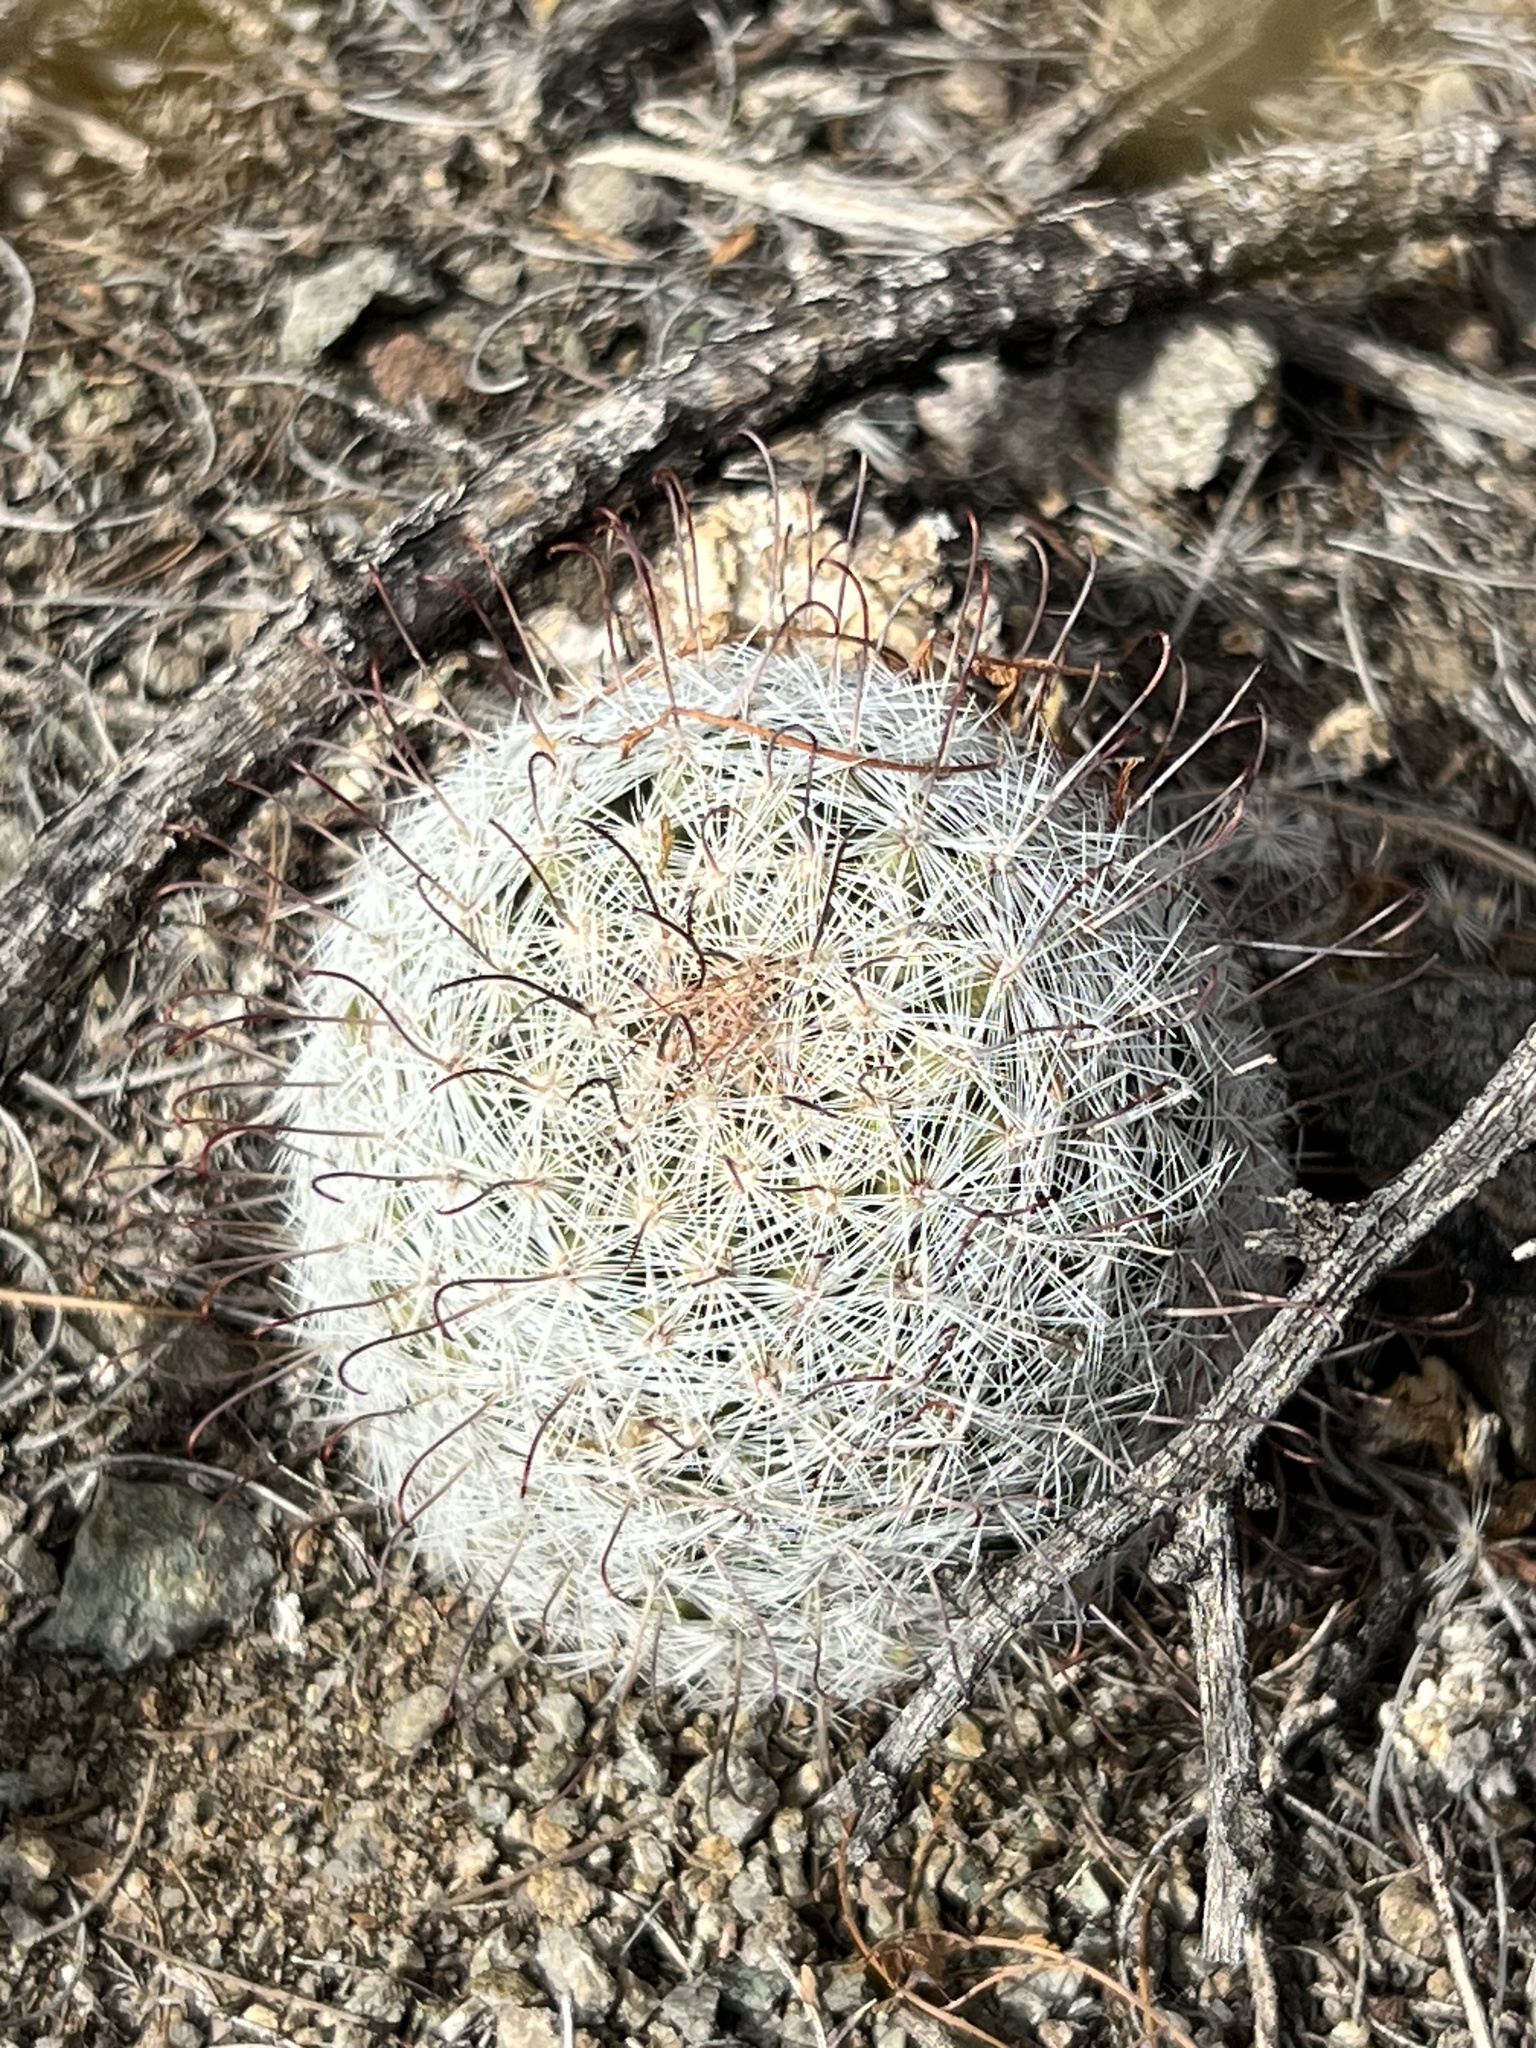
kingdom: Plantae
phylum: Tracheophyta
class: Magnoliopsida
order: Caryophyllales
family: Cactaceae
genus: Cochemiea
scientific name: Cochemiea grahamii
